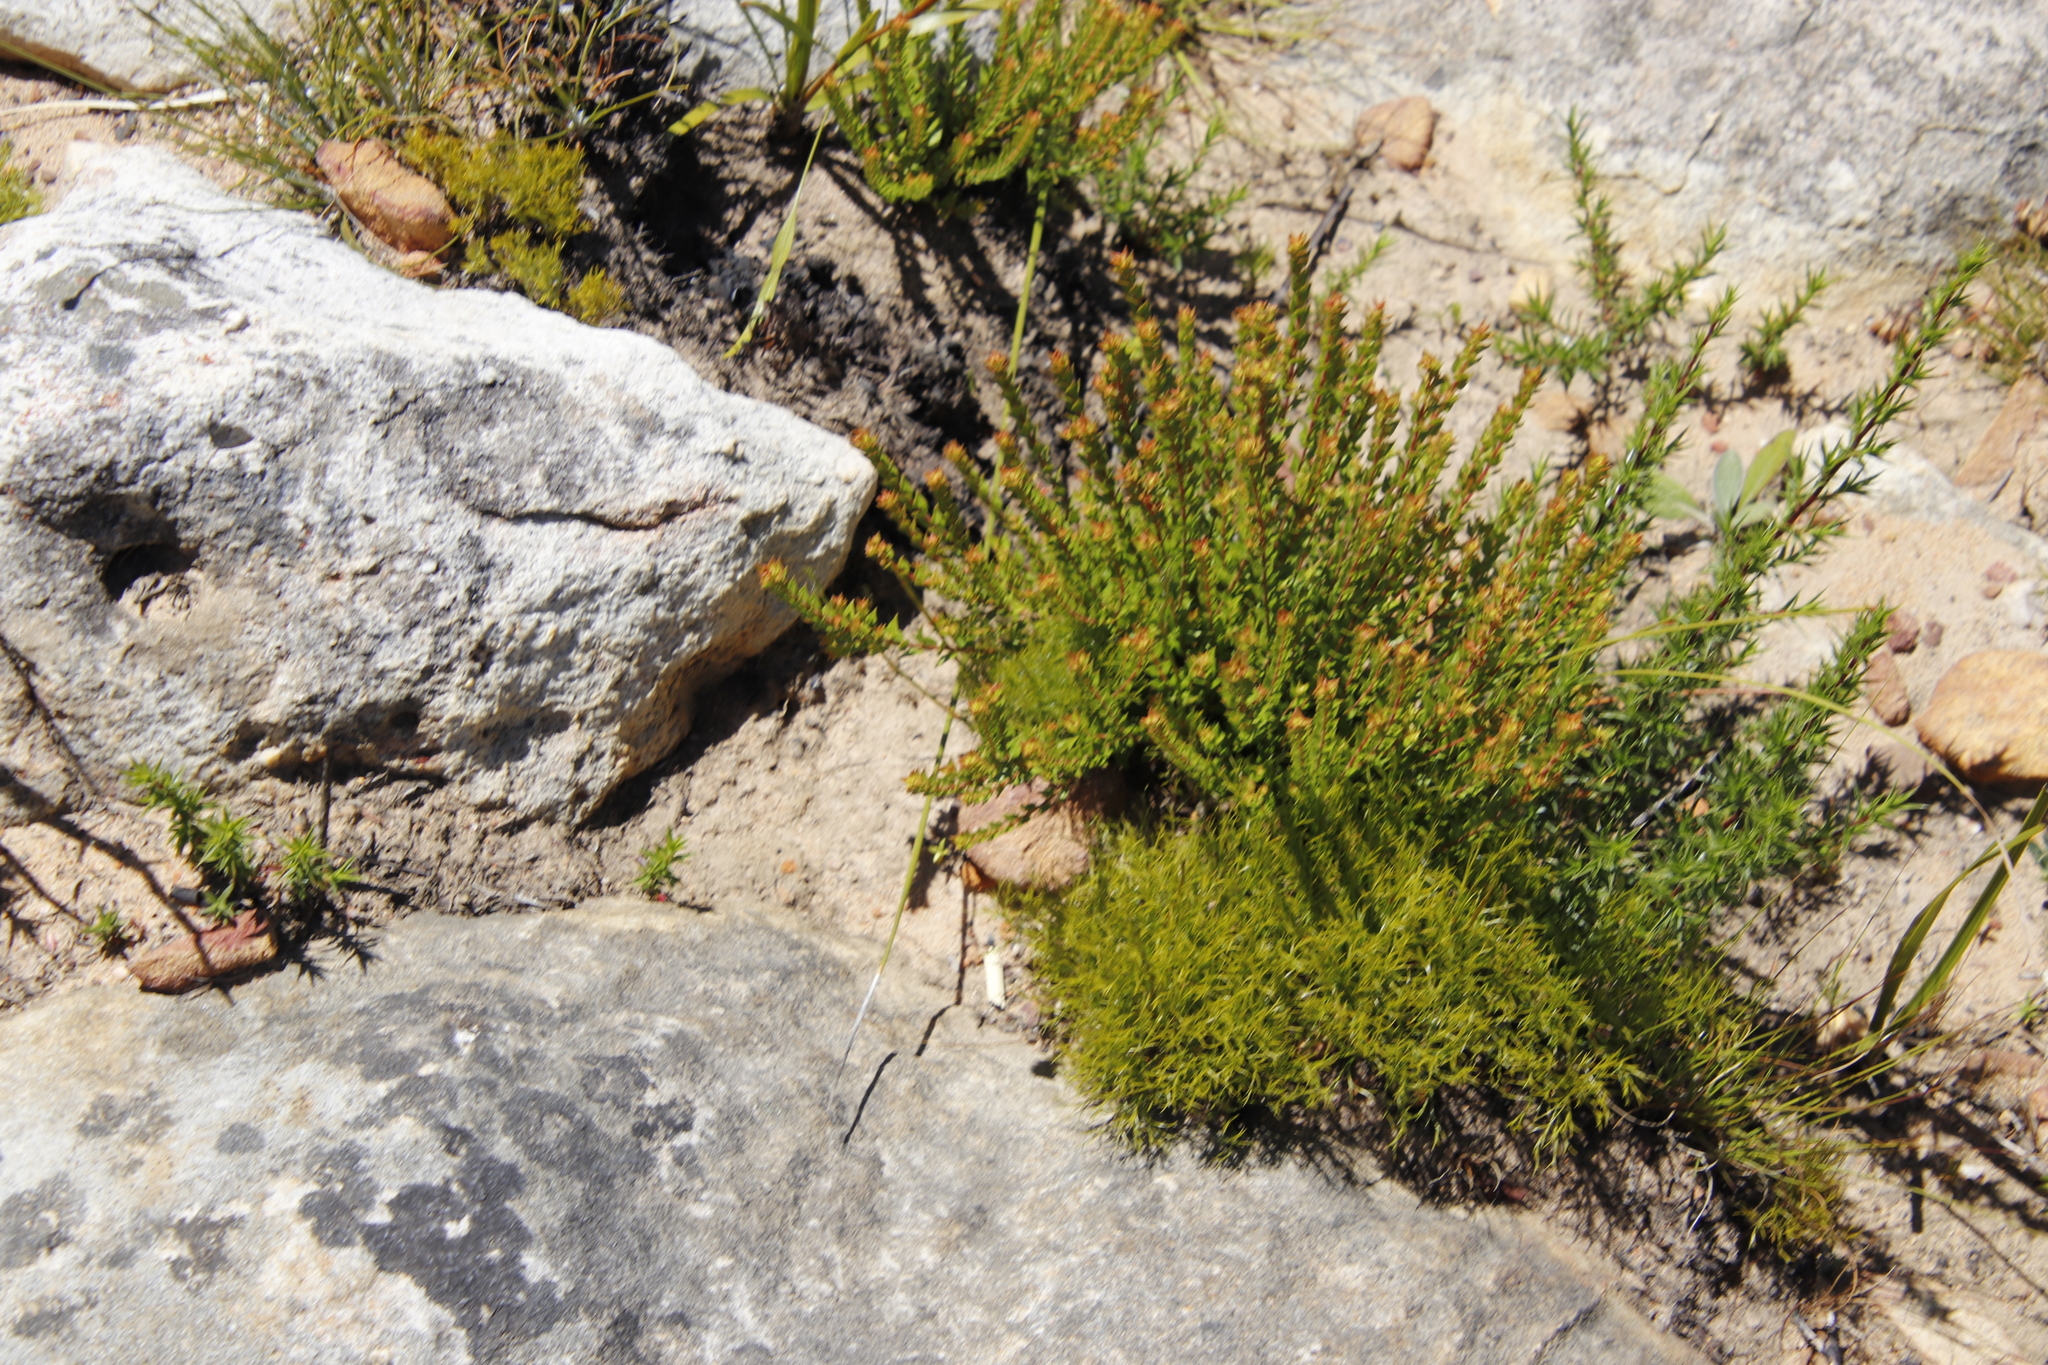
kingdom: Plantae
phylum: Tracheophyta
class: Magnoliopsida
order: Myrtales
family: Penaeaceae
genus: Penaea
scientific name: Penaea mucronata
